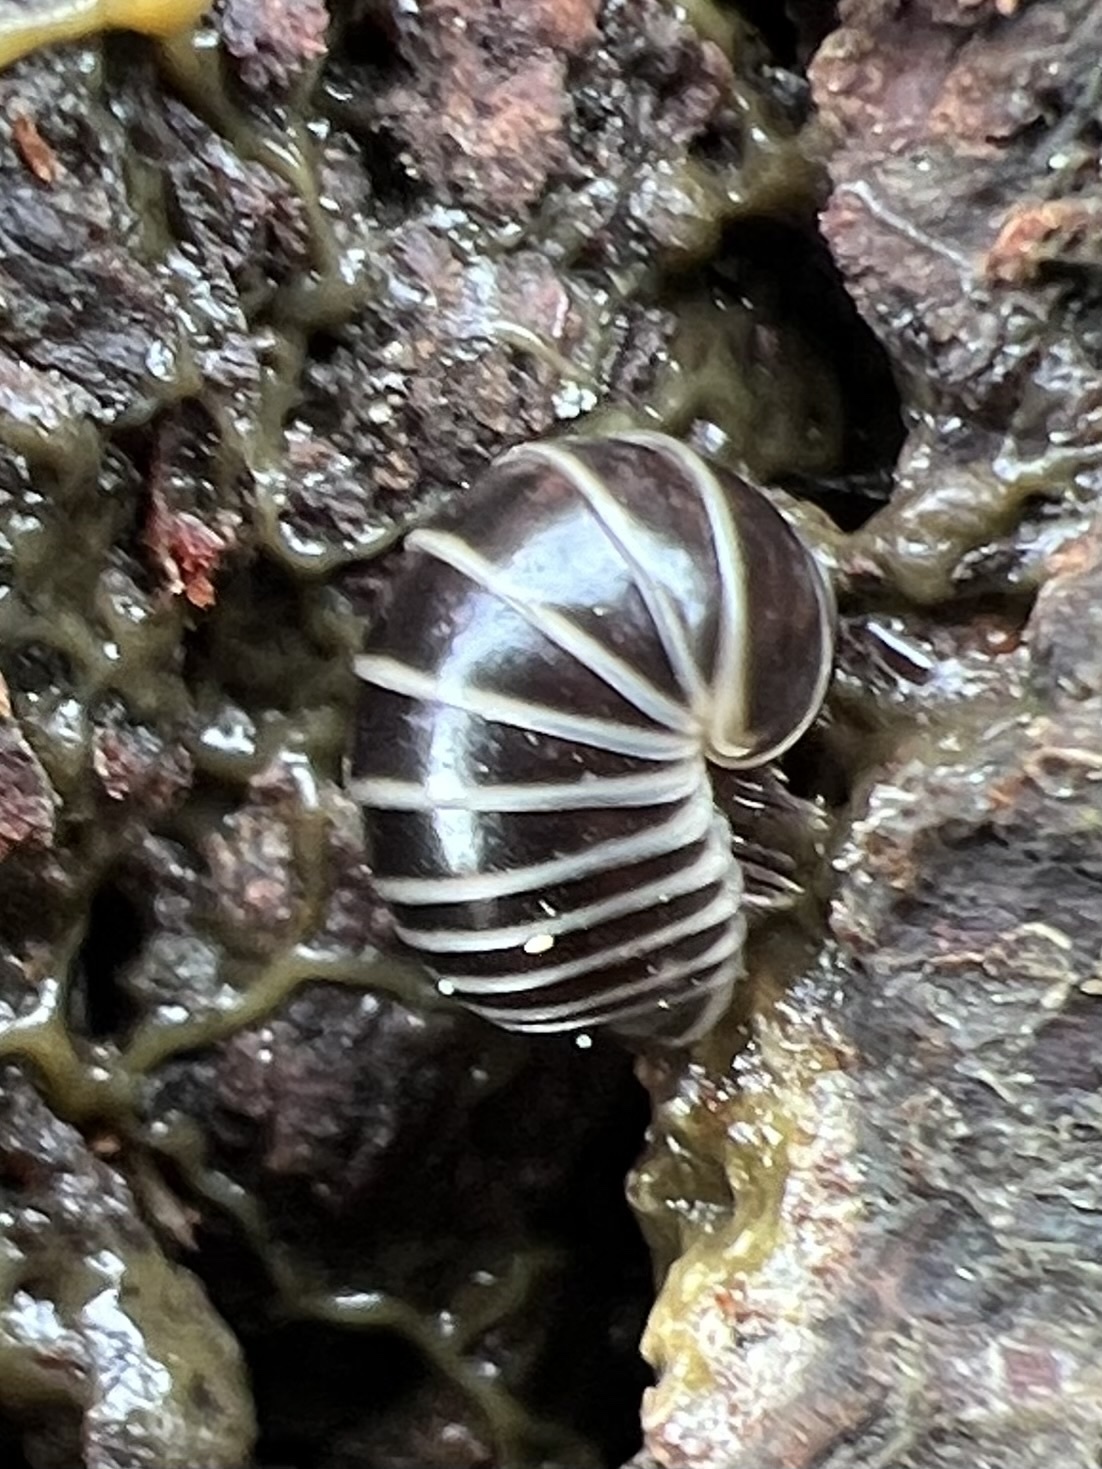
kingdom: Animalia
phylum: Arthropoda
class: Diplopoda
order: Glomerida
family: Glomeridae
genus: Glomeris
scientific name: Glomeris marginata
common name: Bordered pill millipede
